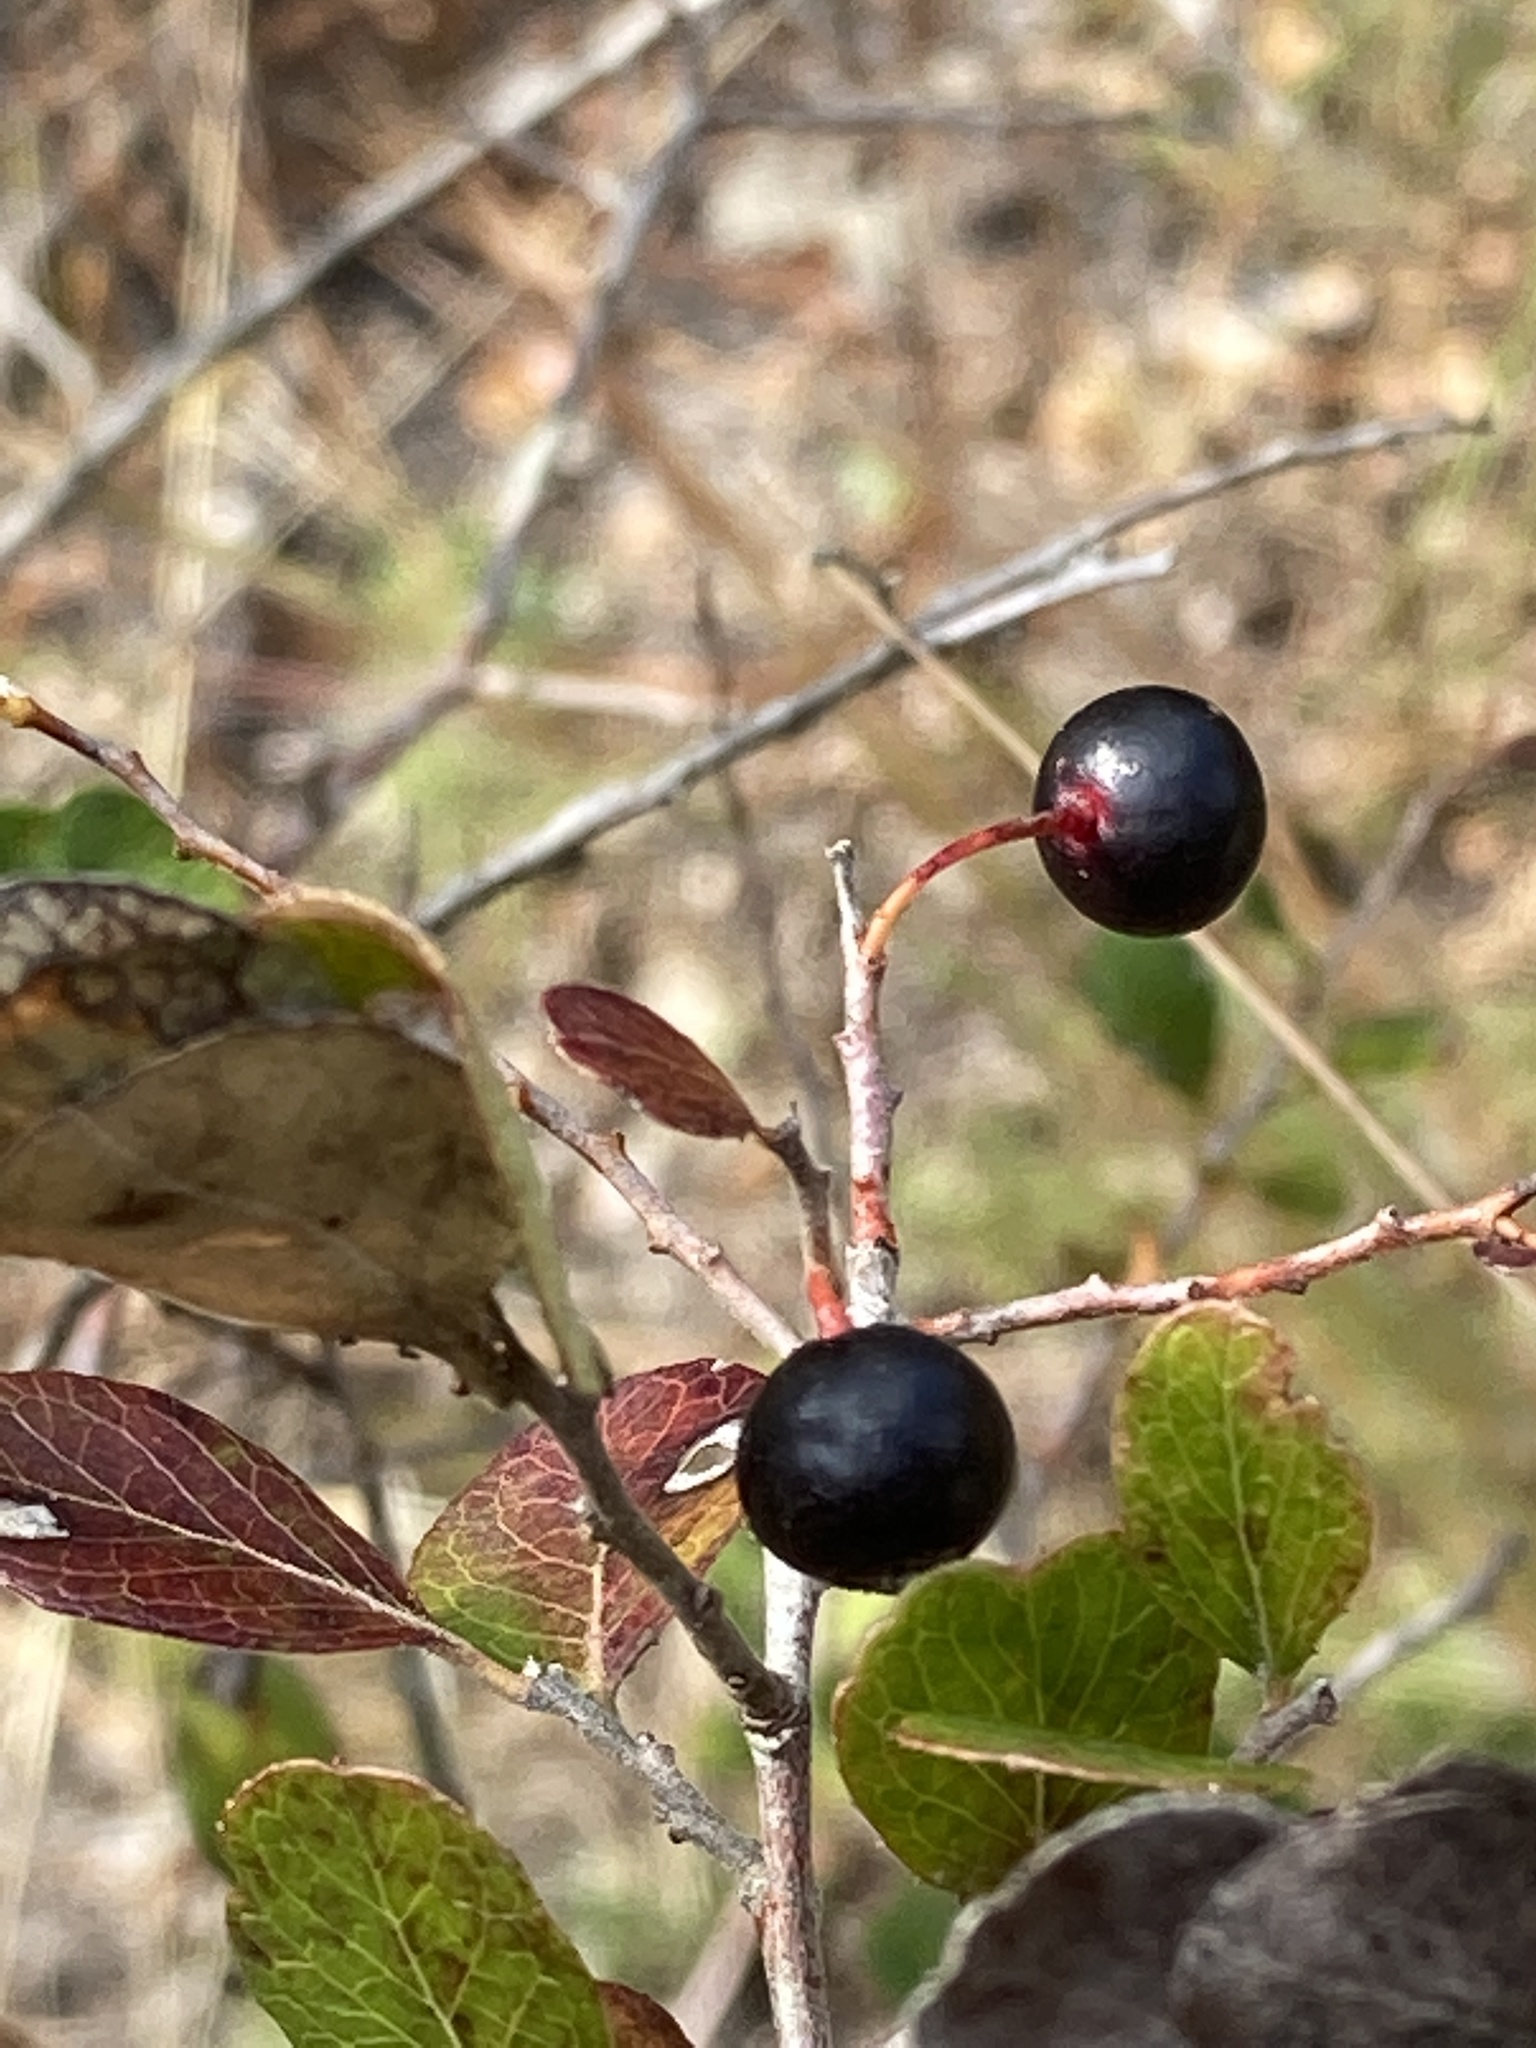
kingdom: Plantae
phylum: Tracheophyta
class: Magnoliopsida
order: Ericales
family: Ericaceae
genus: Vaccinium
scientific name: Vaccinium arboreum
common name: Farkleberry
